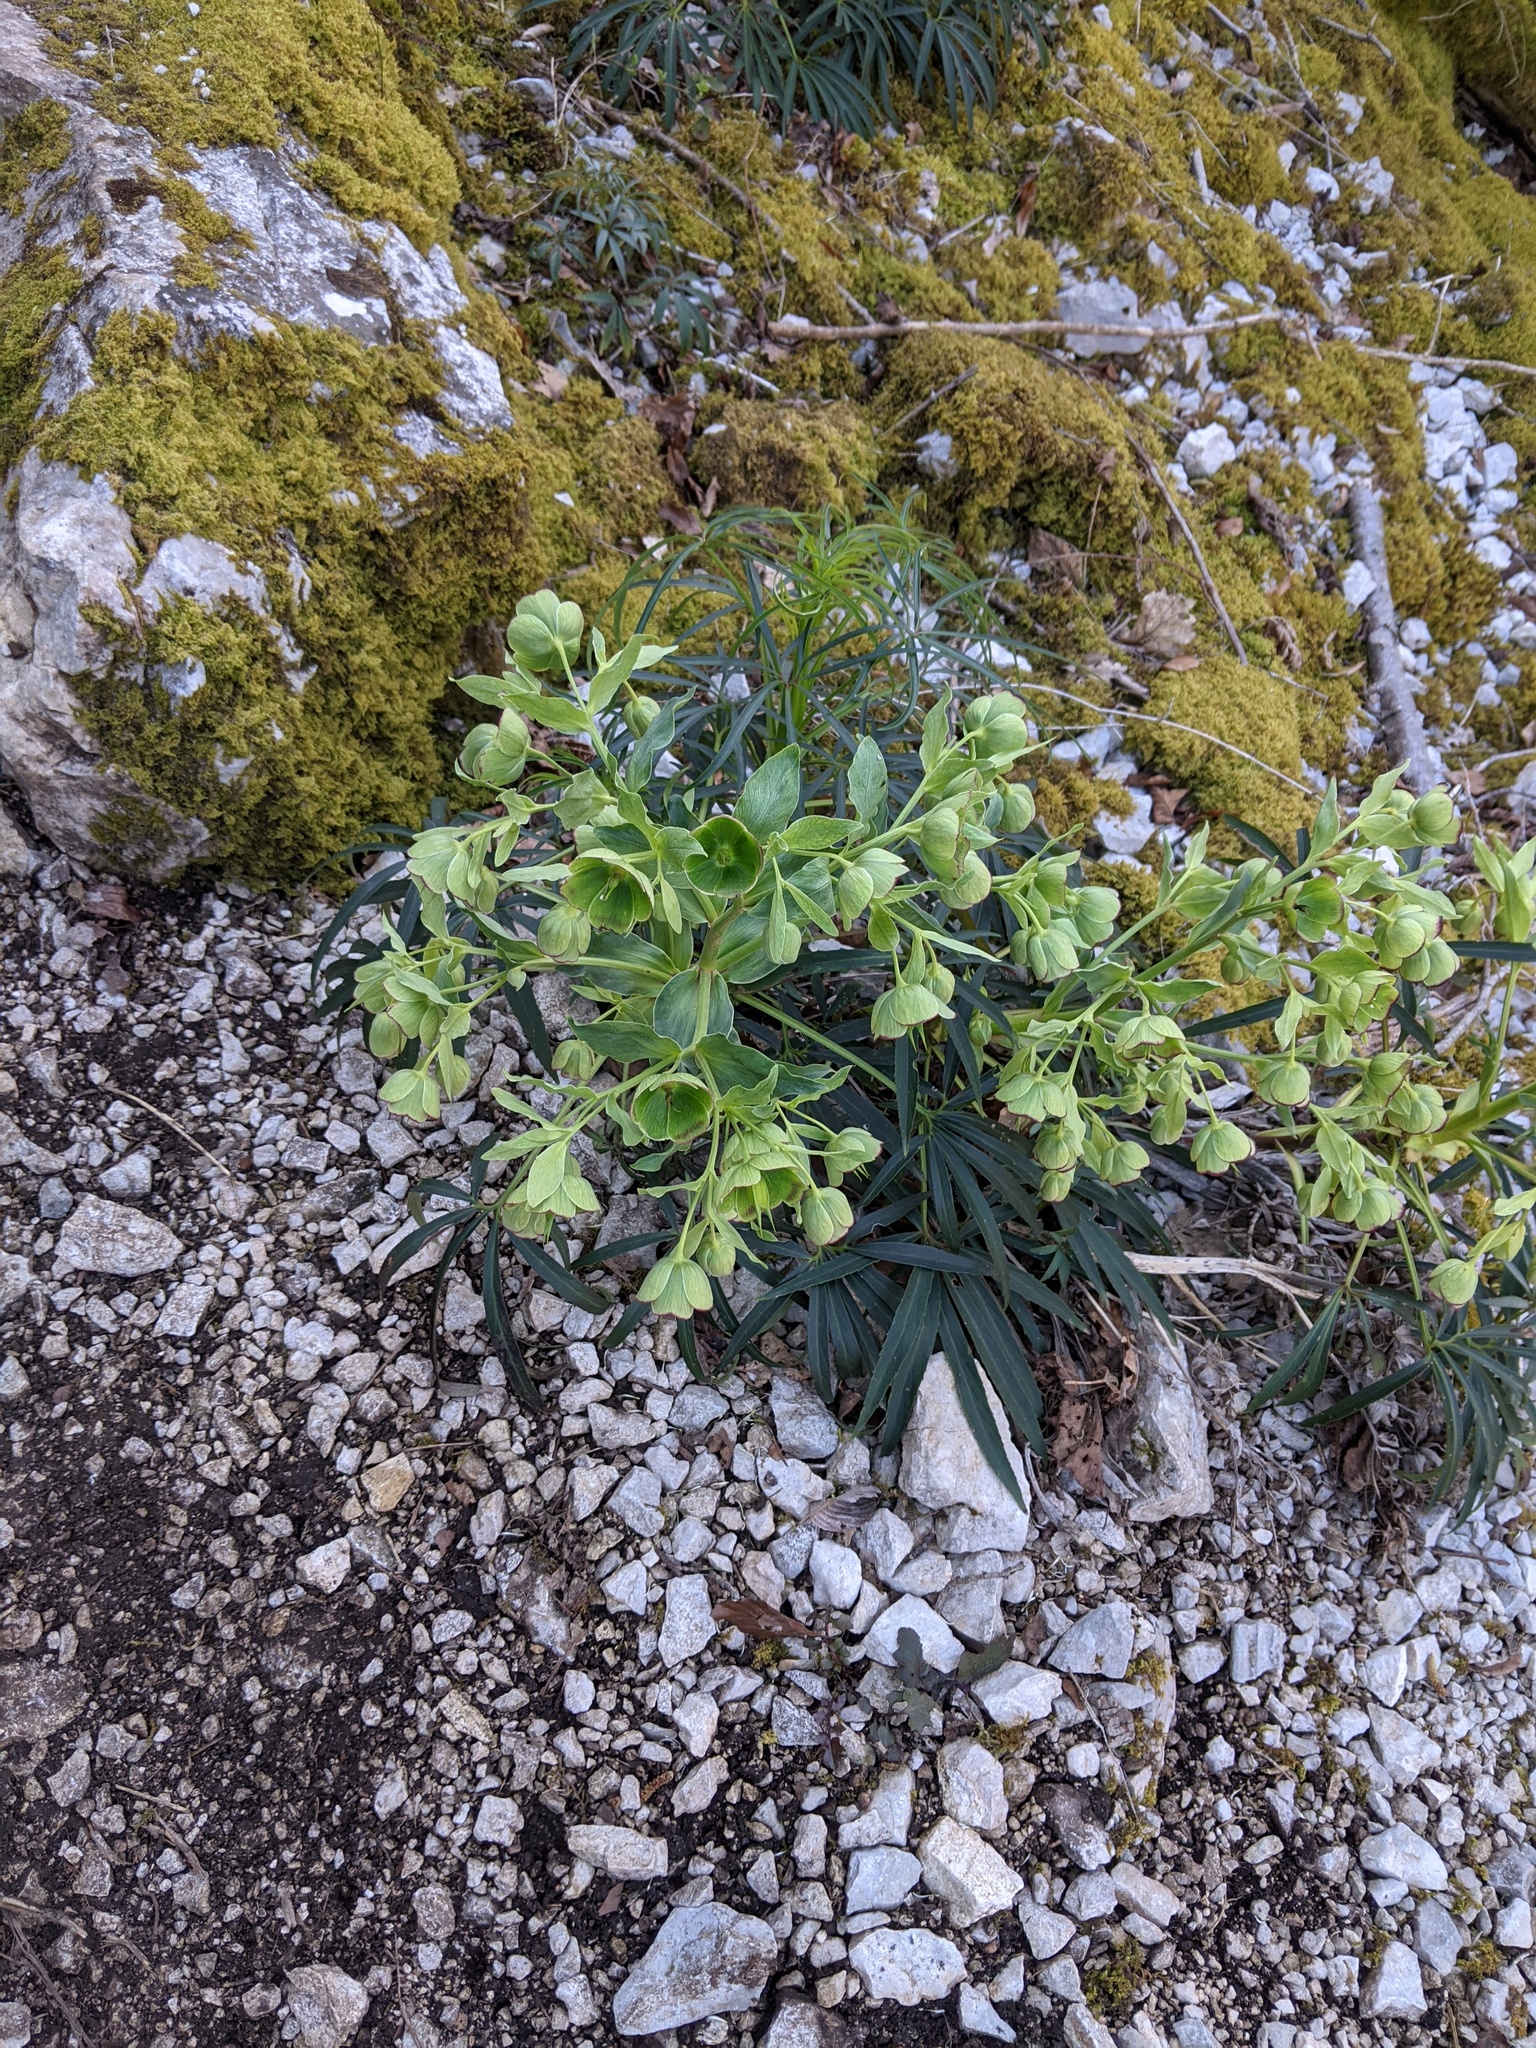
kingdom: Plantae
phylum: Tracheophyta
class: Magnoliopsida
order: Ranunculales
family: Ranunculaceae
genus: Helleborus
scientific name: Helleborus foetidus
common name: Stinking hellebore
